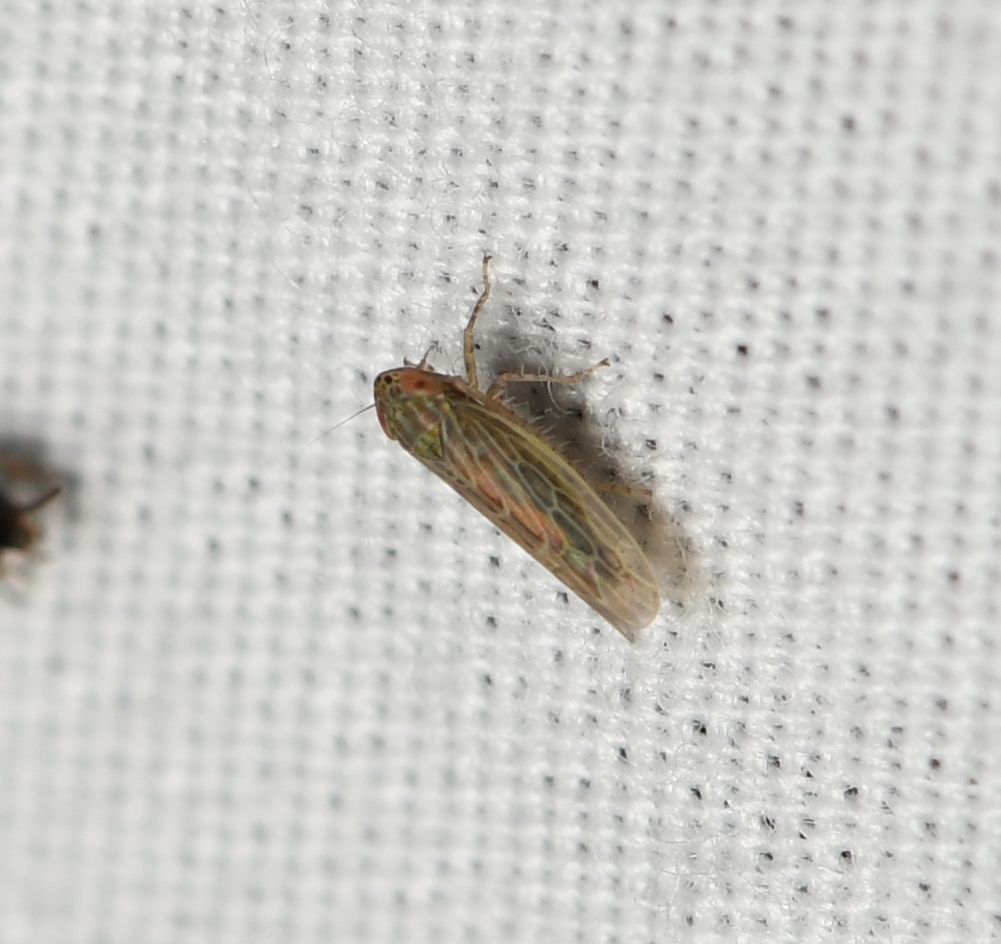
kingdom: Animalia
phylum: Arthropoda
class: Insecta
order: Hemiptera
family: Cicadellidae
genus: Graminella
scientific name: Graminella sonora
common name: Lesser lawn leafhopper
